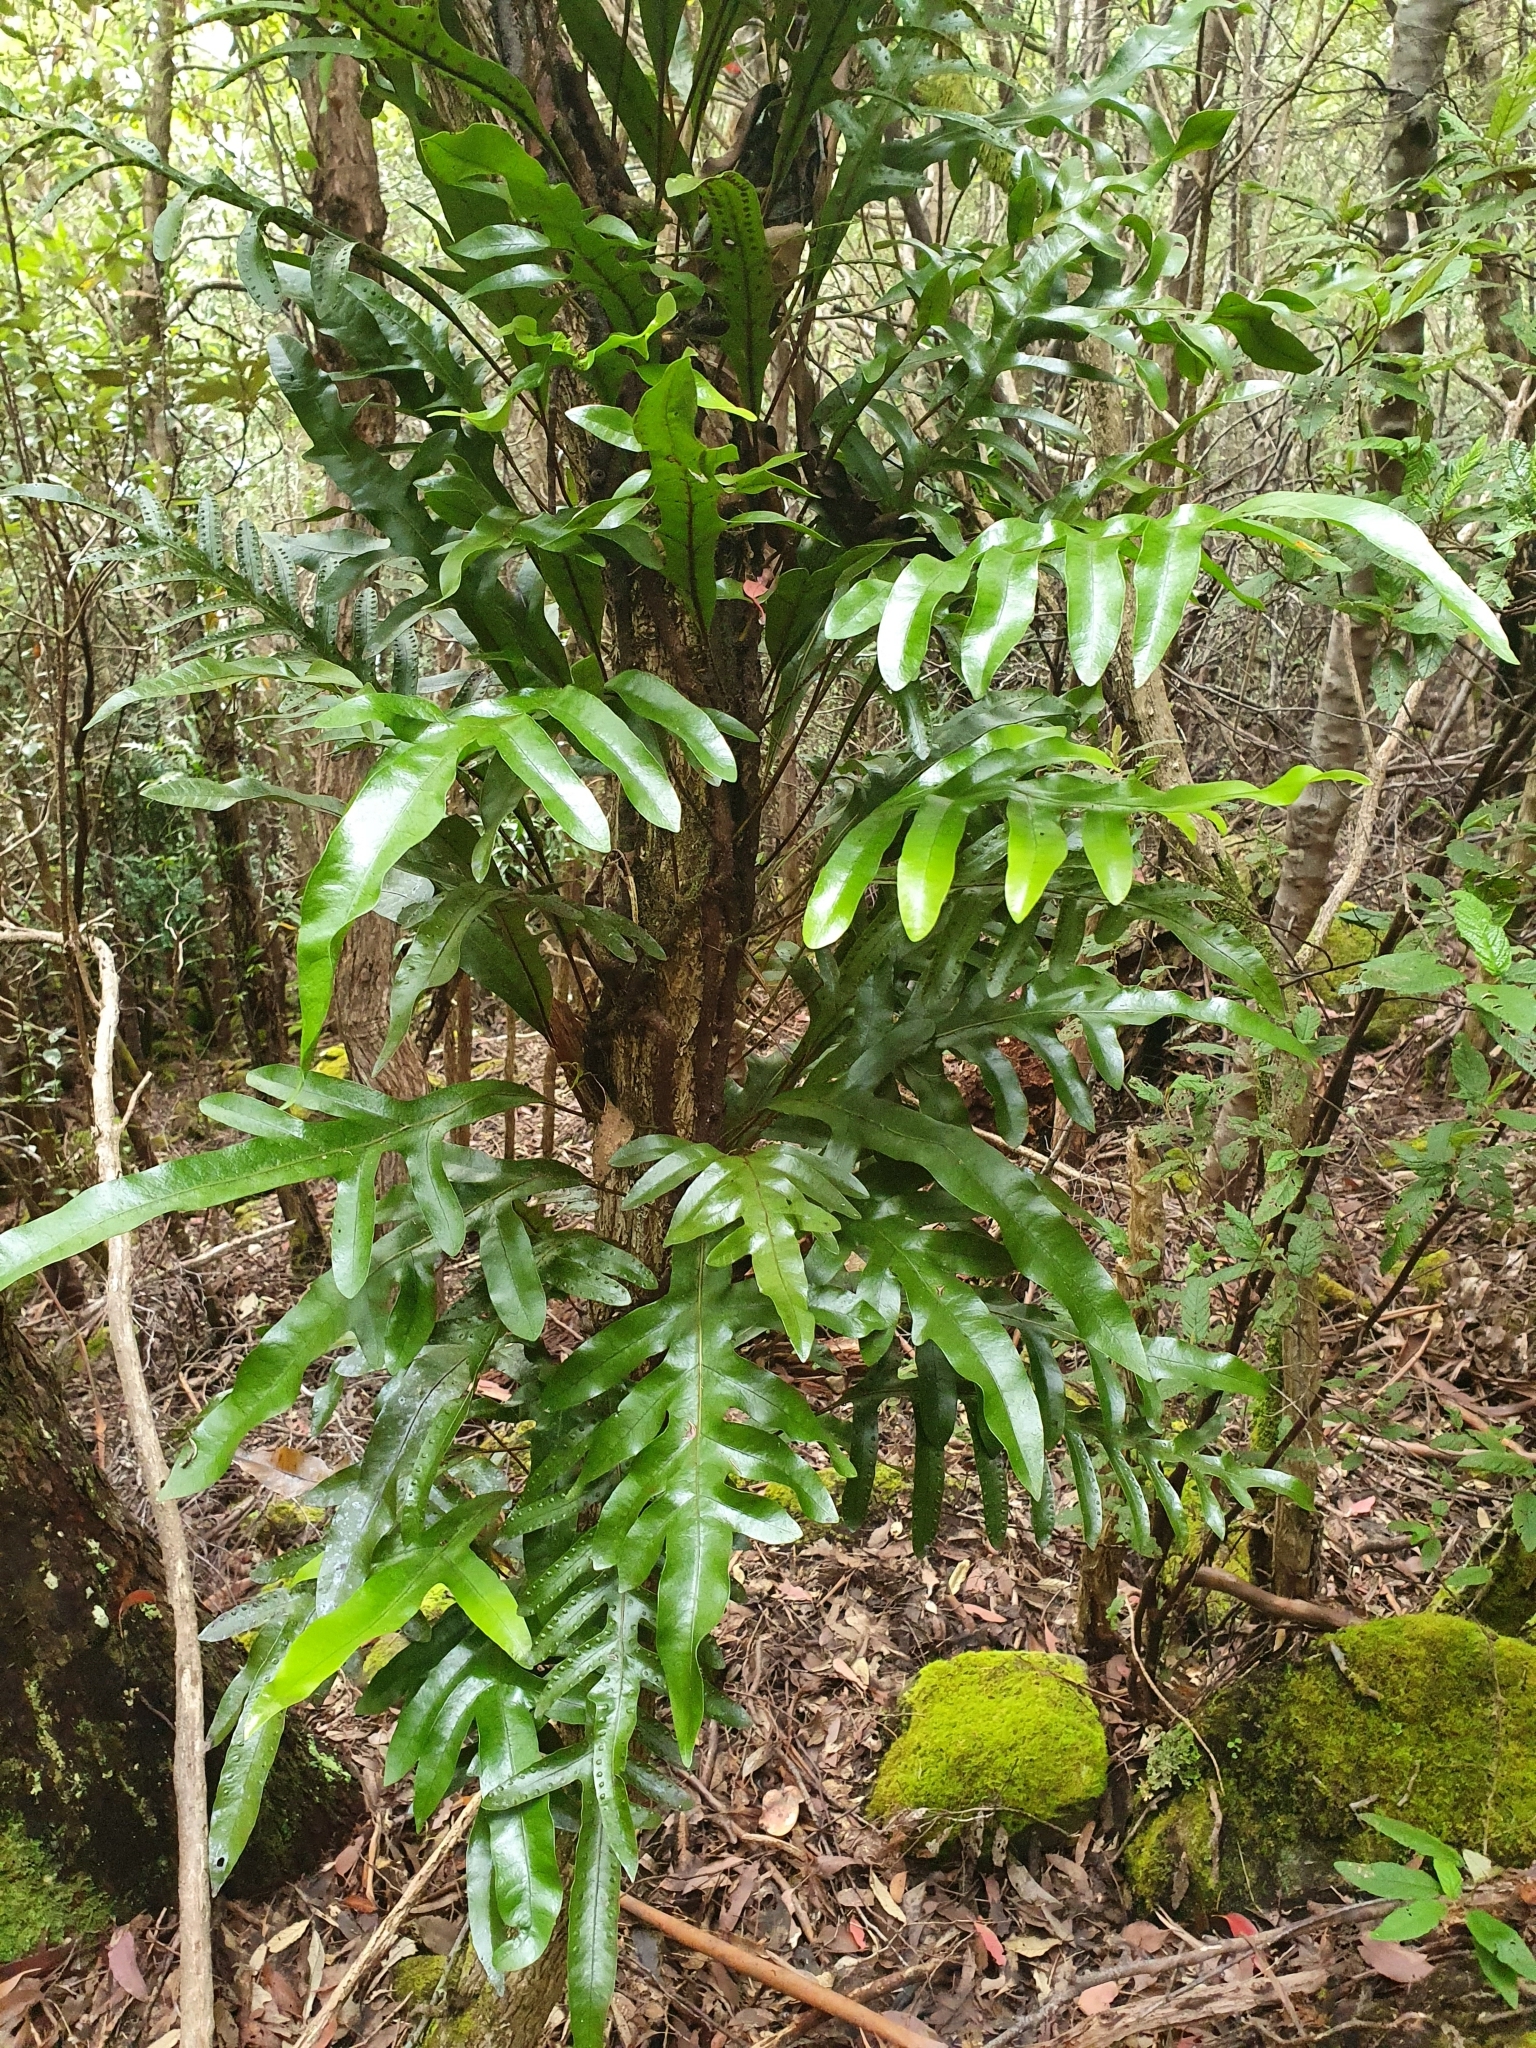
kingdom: Plantae
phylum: Tracheophyta
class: Polypodiopsida
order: Polypodiales
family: Polypodiaceae
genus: Lecanopteris
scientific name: Lecanopteris pustulata
